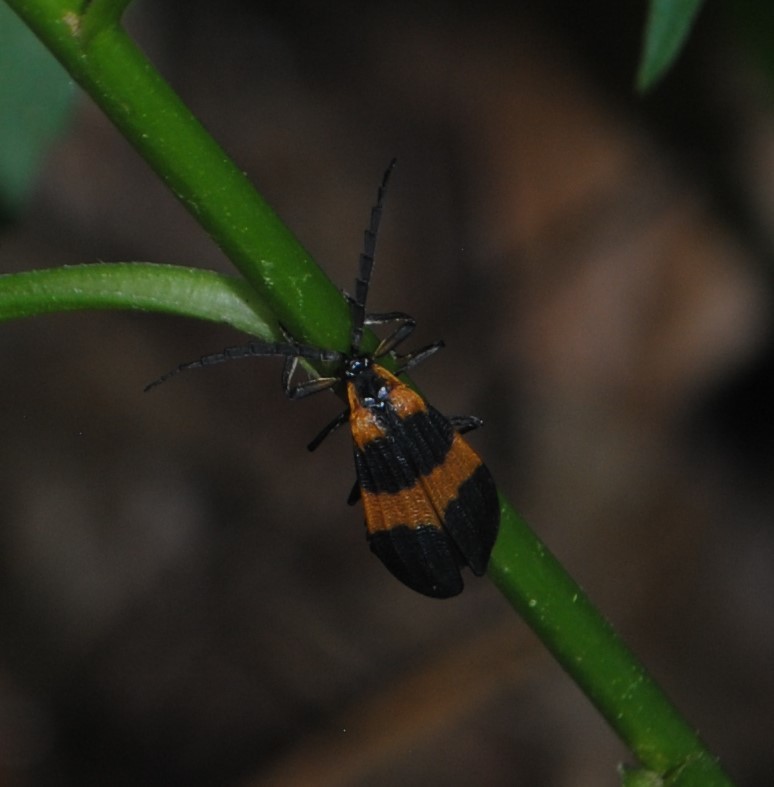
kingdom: Animalia
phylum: Arthropoda
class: Insecta
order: Coleoptera
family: Lycidae
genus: Calopteron
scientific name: Calopteron reticulatum
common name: Banded net-winged beetle
